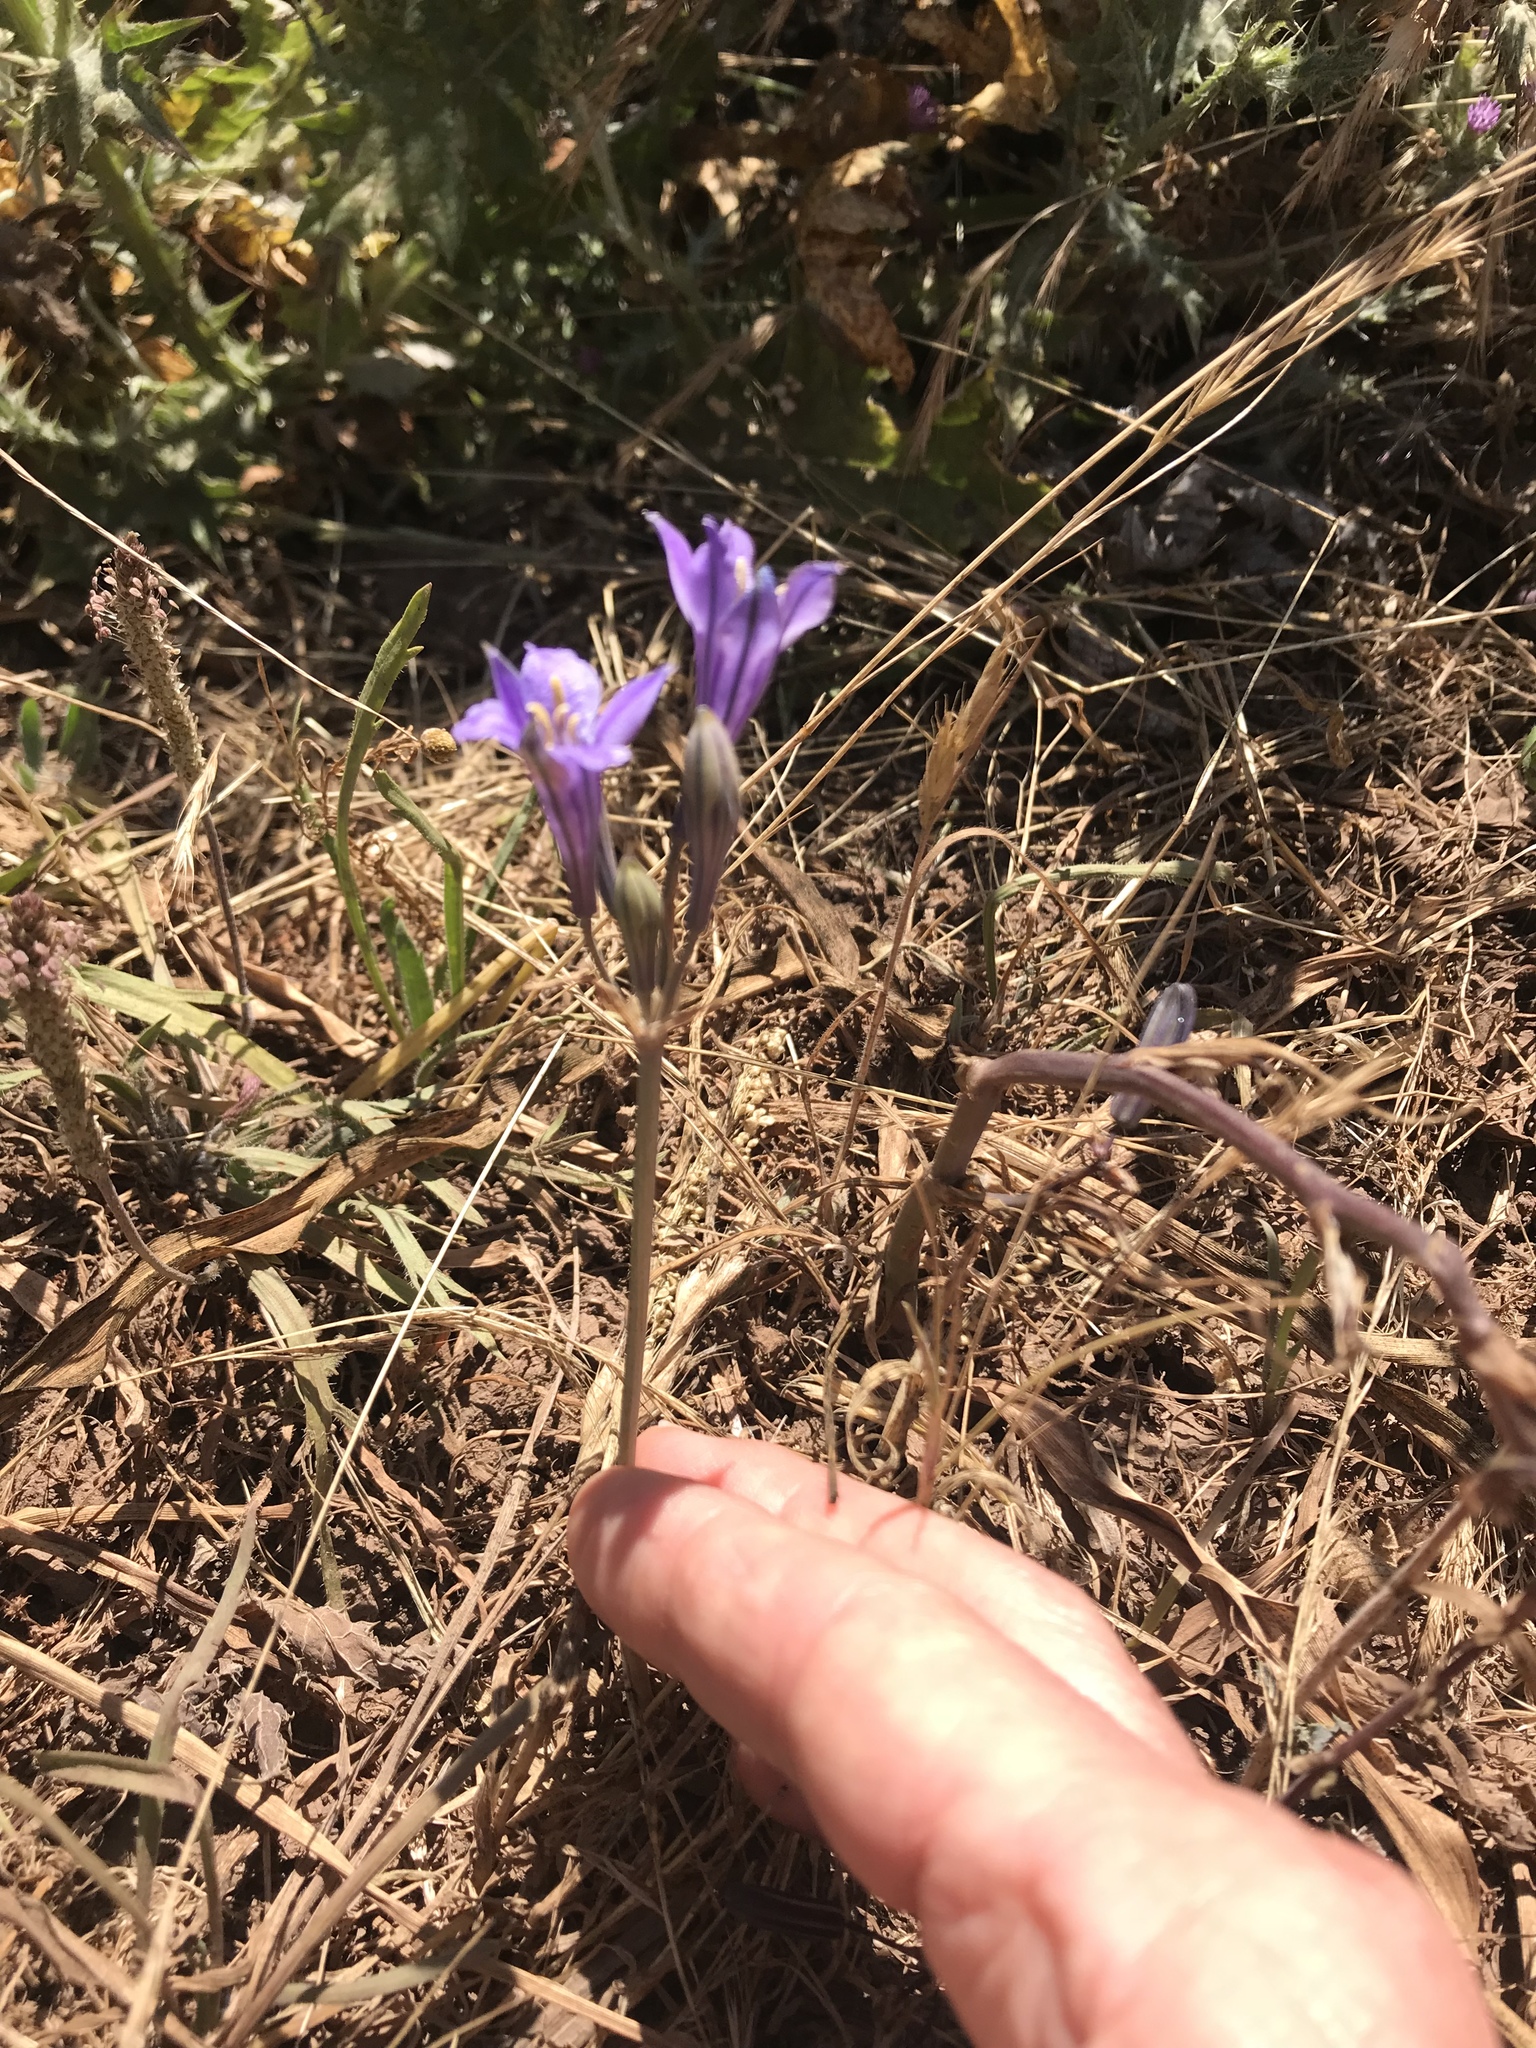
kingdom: Plantae
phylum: Tracheophyta
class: Liliopsida
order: Asparagales
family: Asparagaceae
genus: Triteleia
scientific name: Triteleia laxa
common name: Triplet-lily
